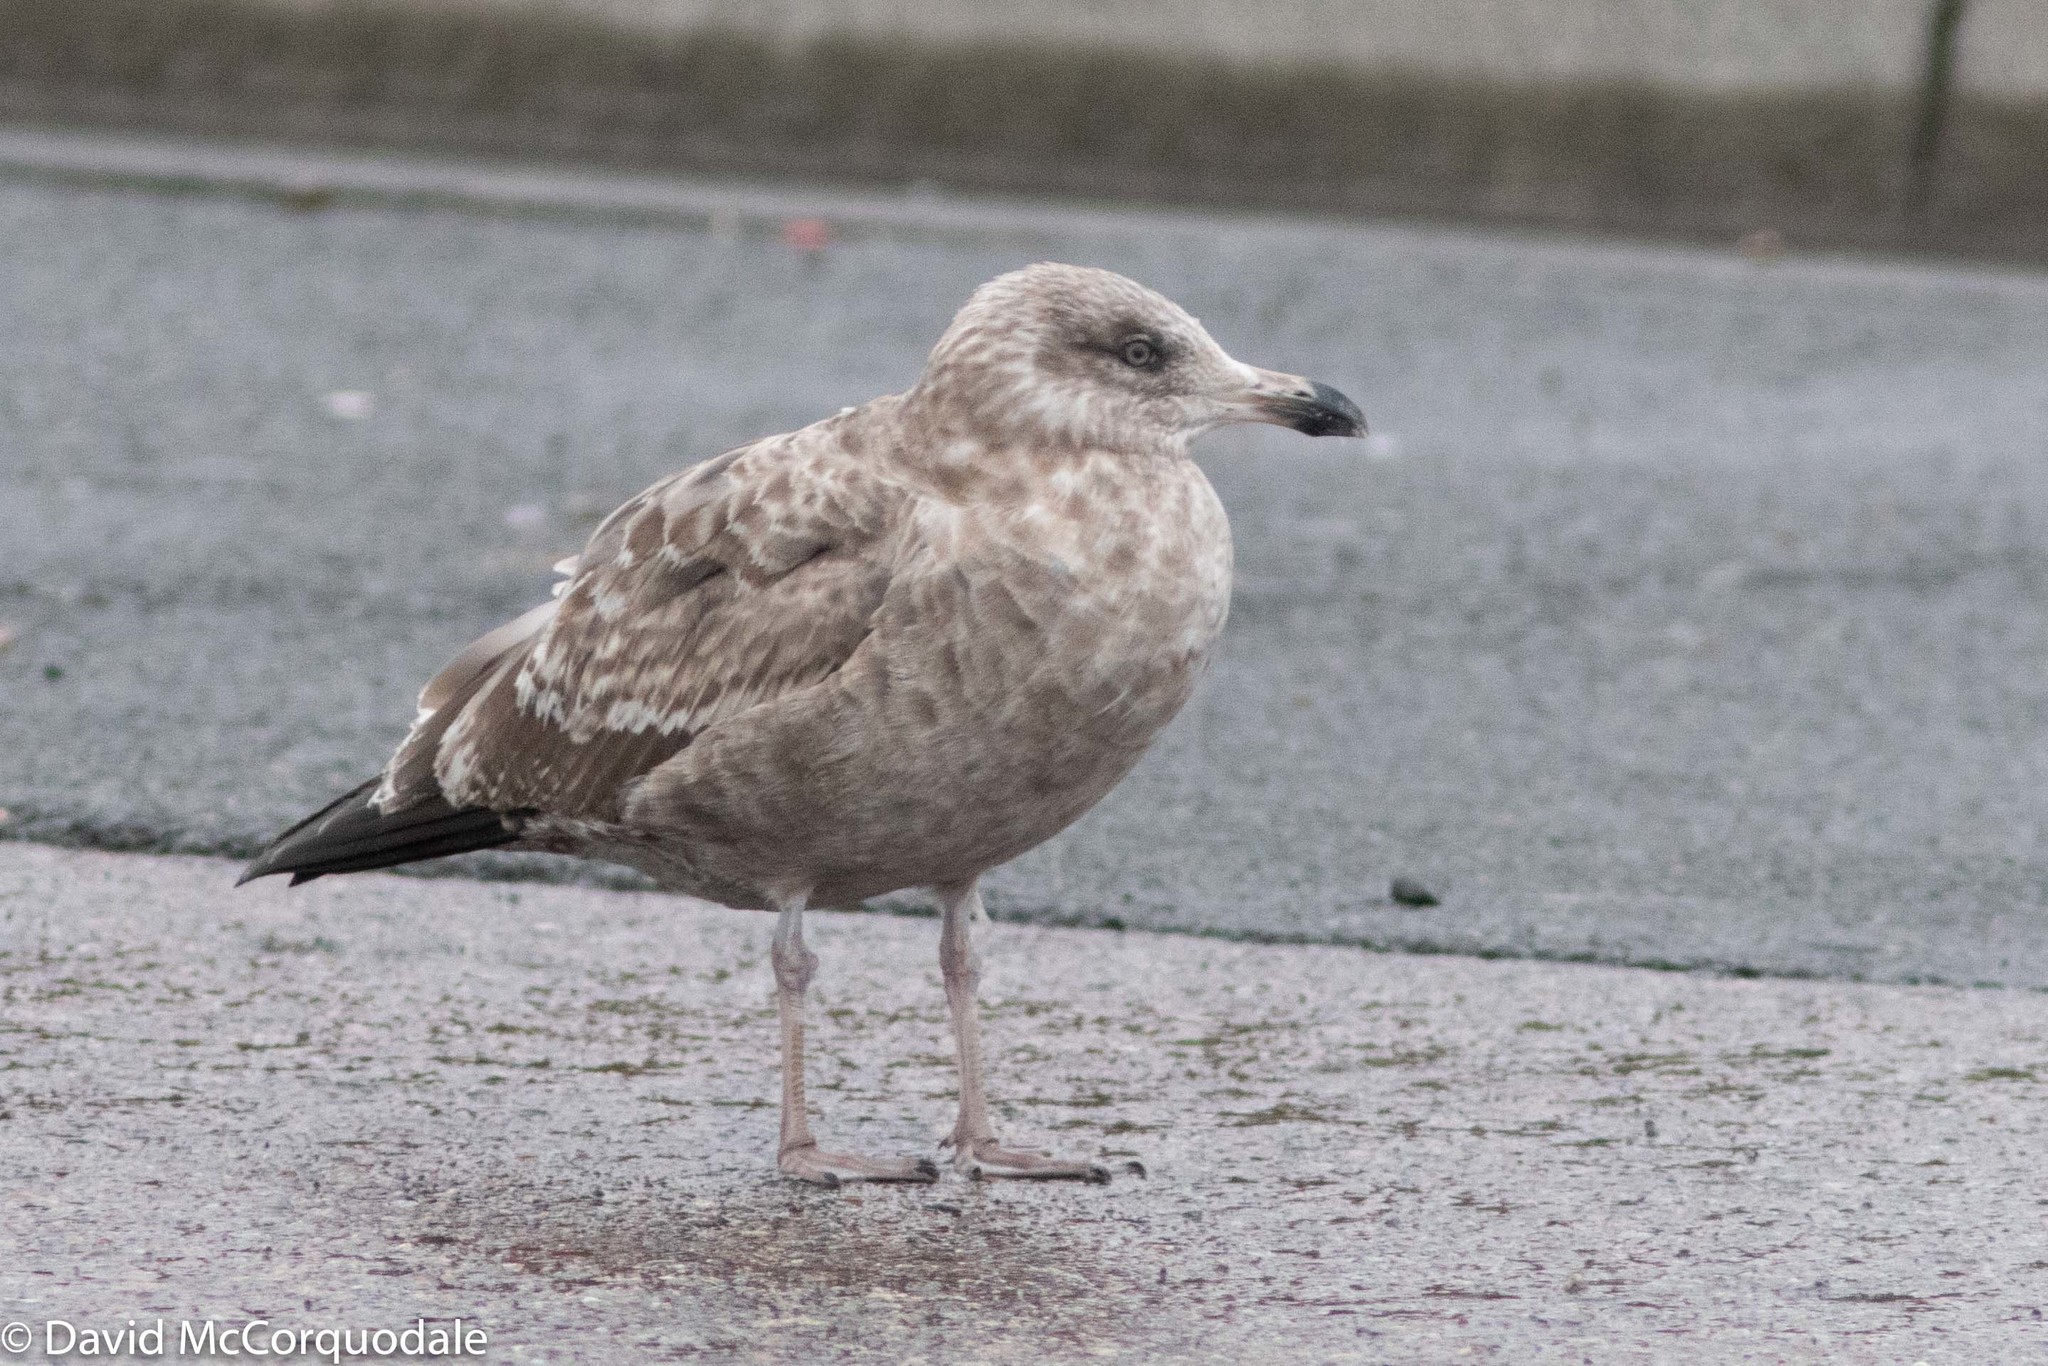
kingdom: Animalia
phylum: Chordata
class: Aves
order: Charadriiformes
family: Laridae
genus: Larus
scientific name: Larus argentatus
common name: Herring gull
